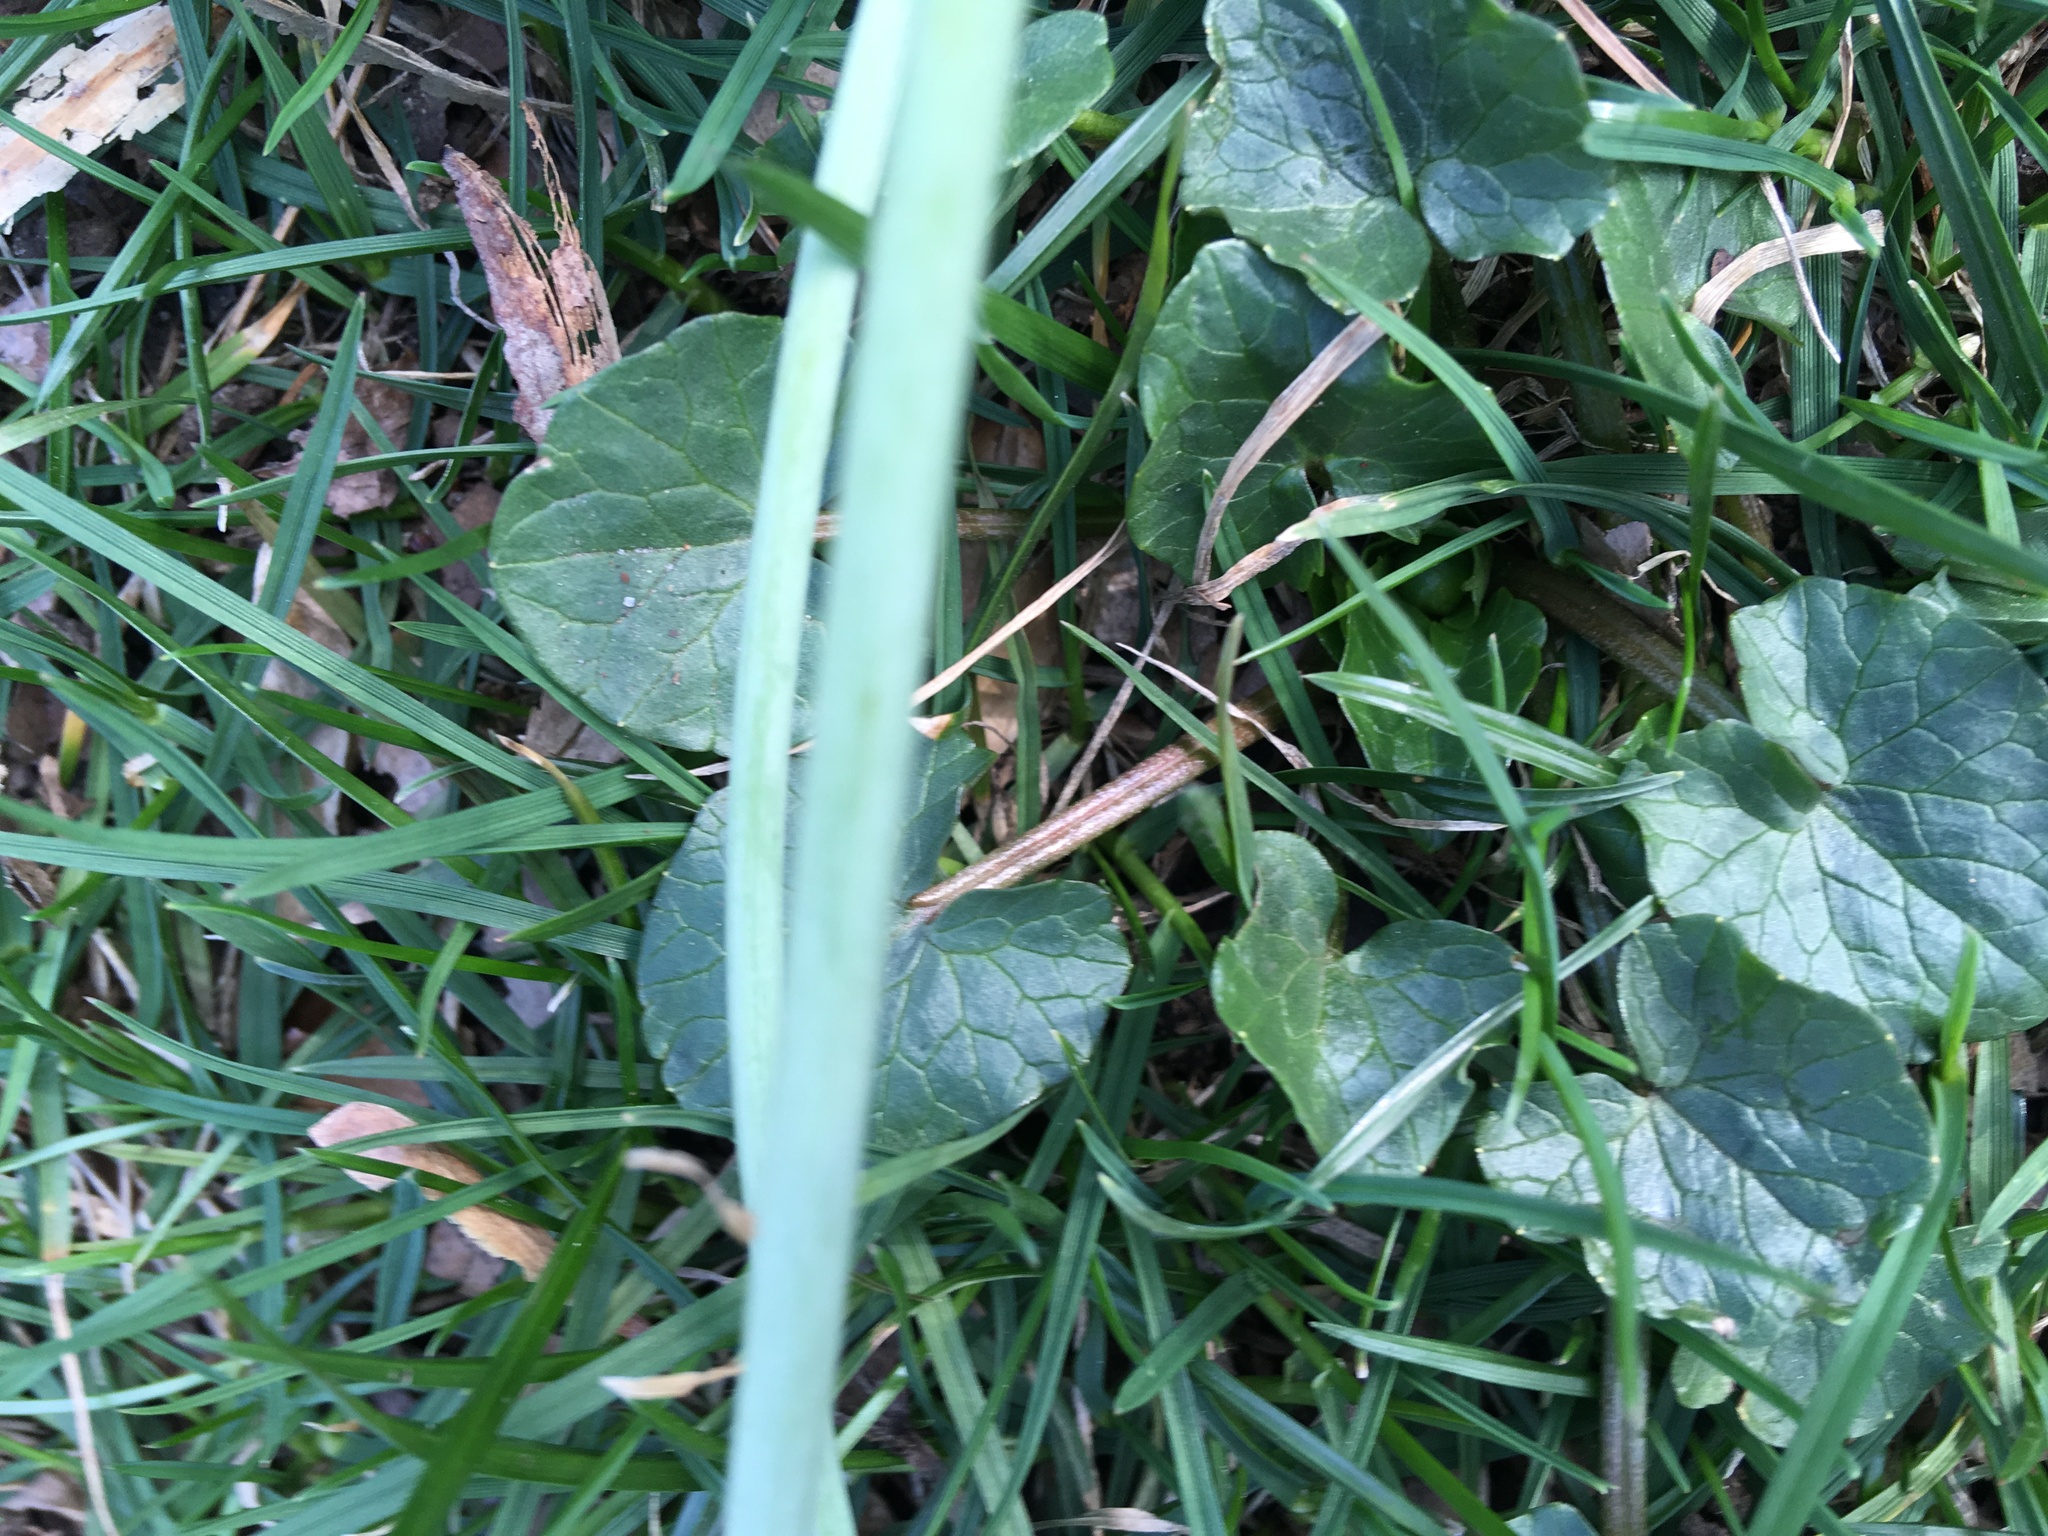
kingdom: Plantae
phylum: Tracheophyta
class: Magnoliopsida
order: Ranunculales
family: Ranunculaceae
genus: Ficaria
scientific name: Ficaria verna
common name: Lesser celandine
